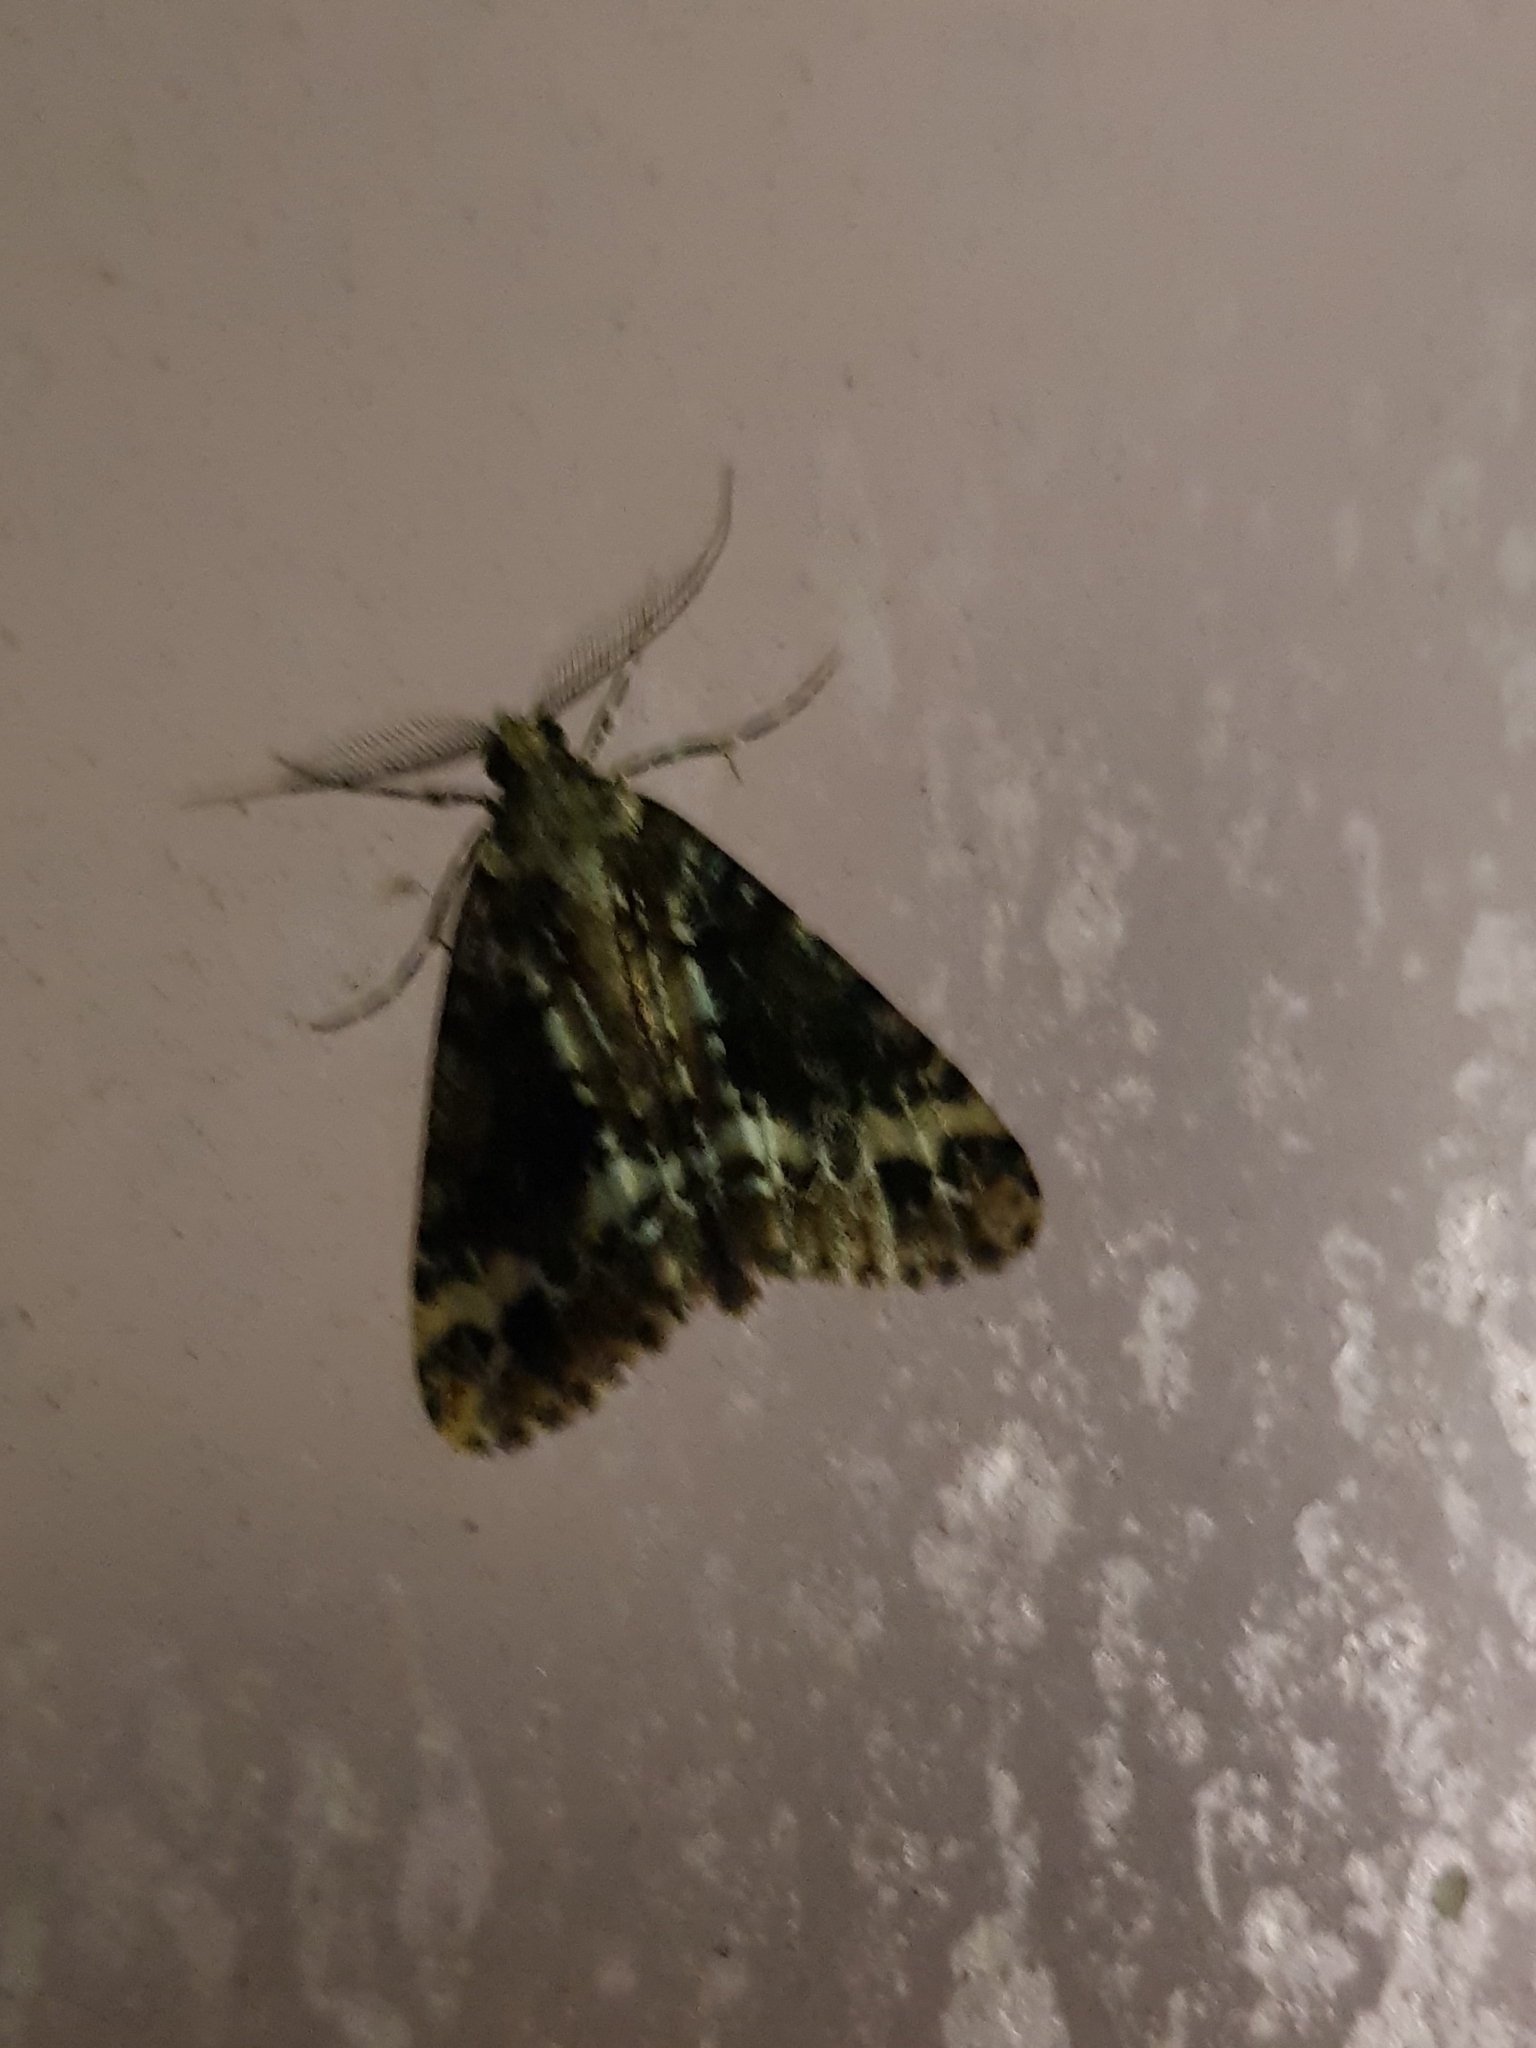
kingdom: Animalia
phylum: Arthropoda
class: Insecta
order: Lepidoptera
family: Geometridae
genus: Pseudocoremia
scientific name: Pseudocoremia leucelaea
